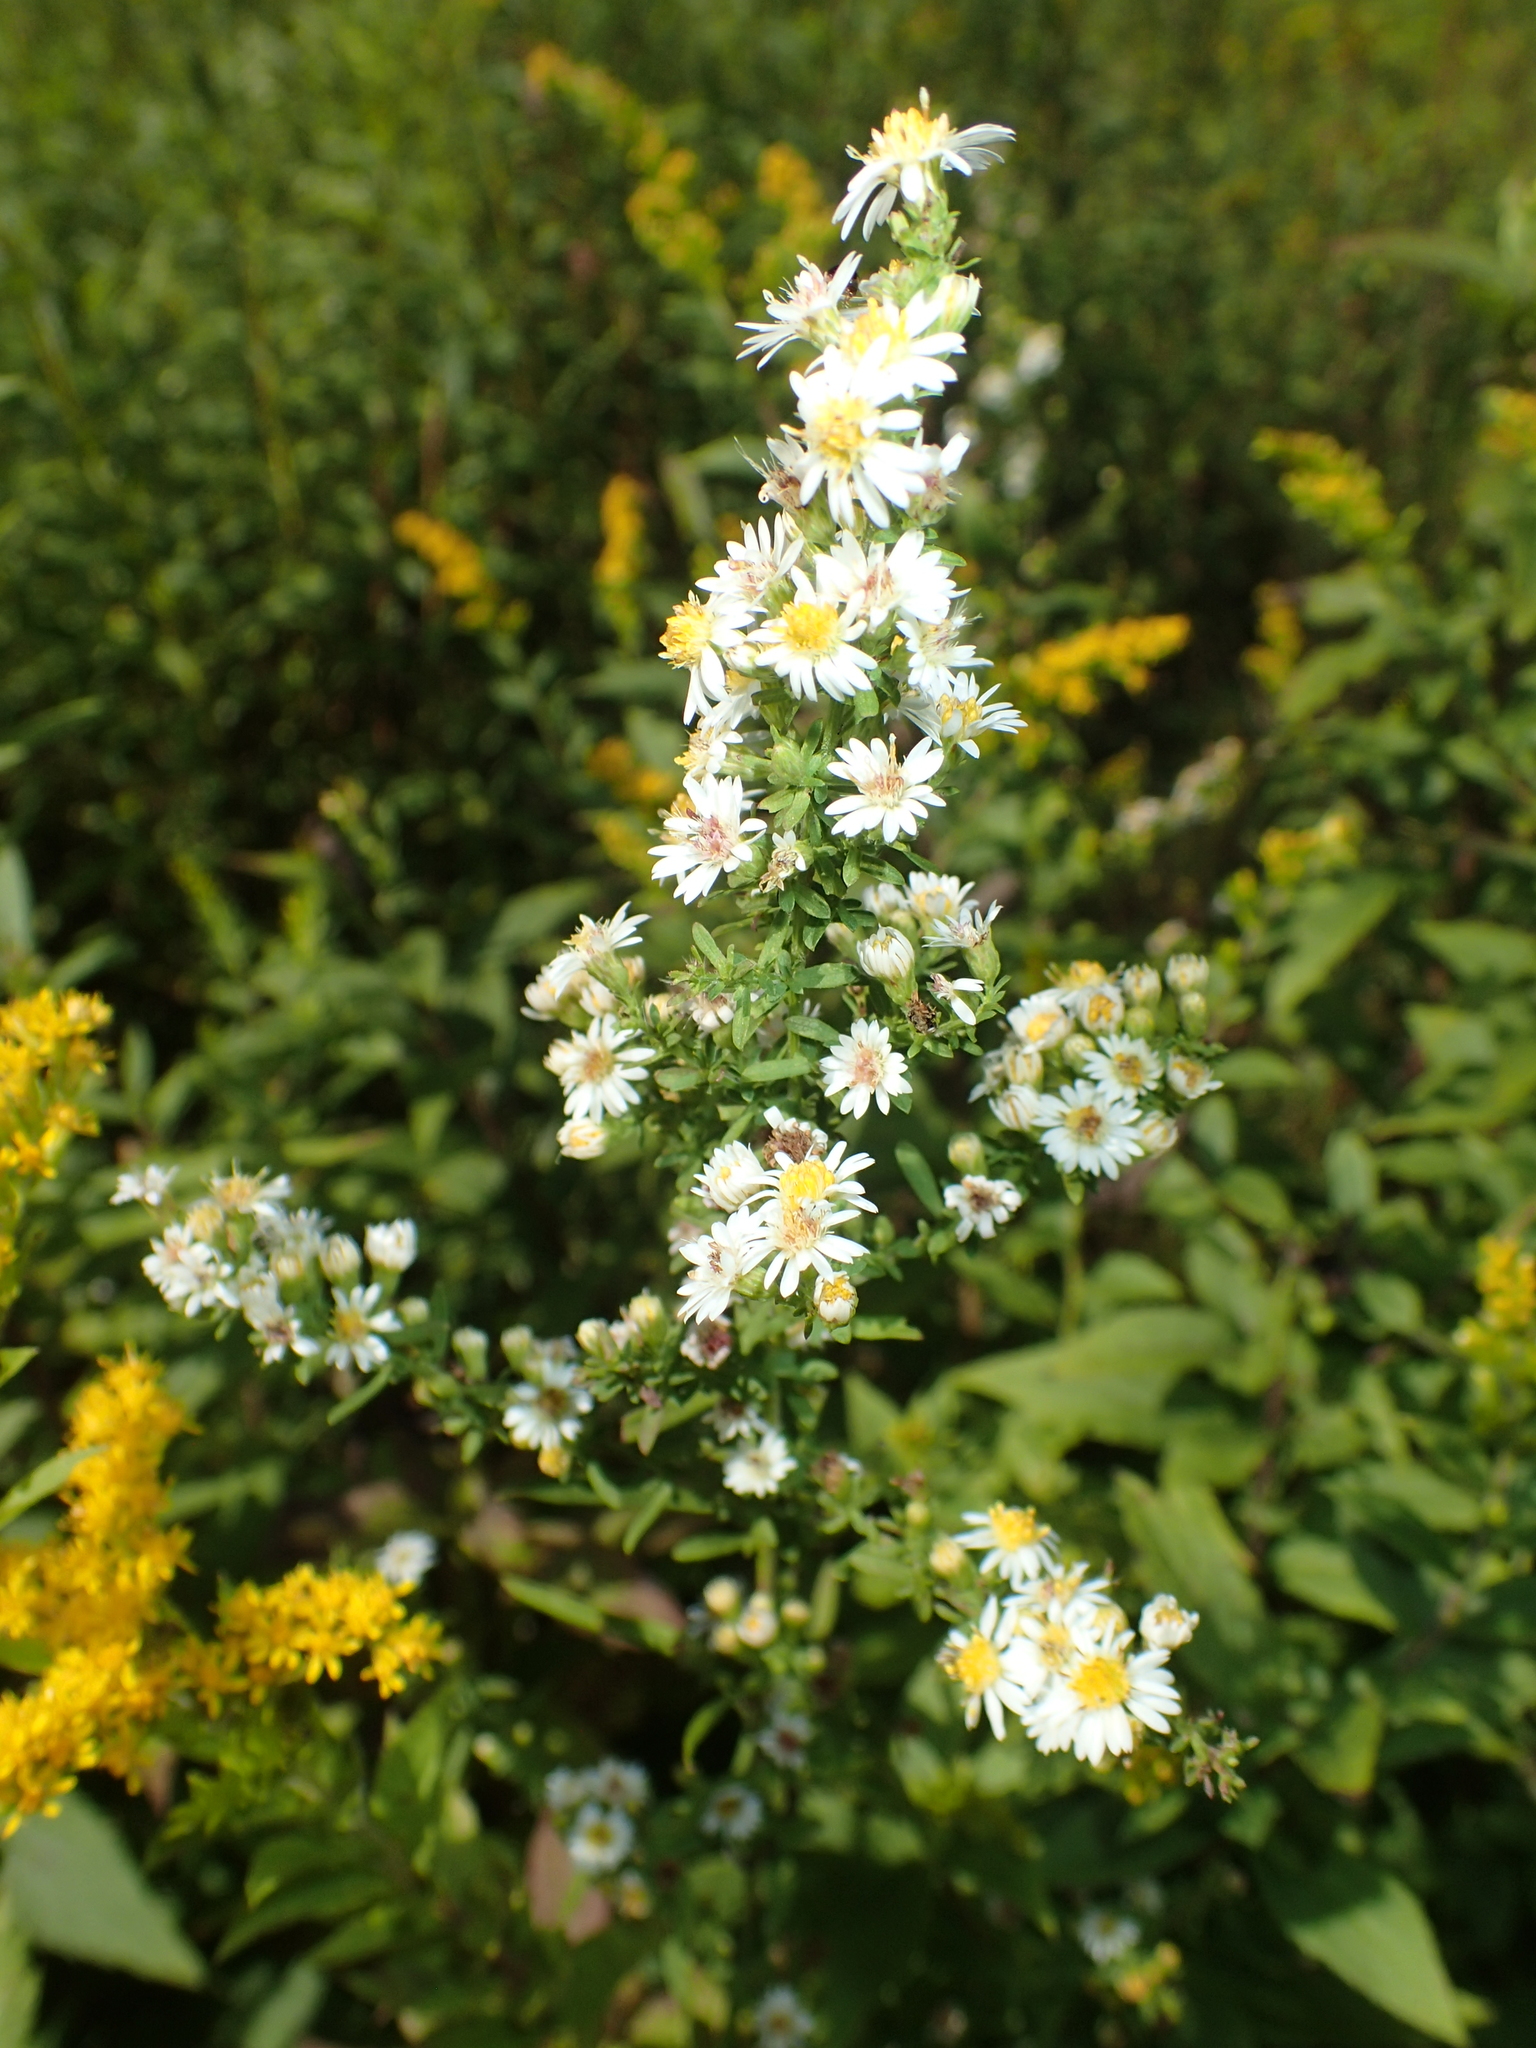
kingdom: Plantae
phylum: Tracheophyta
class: Magnoliopsida
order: Asterales
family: Asteraceae
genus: Symphyotrichum
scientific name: Symphyotrichum lateriflorum
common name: Calico aster
